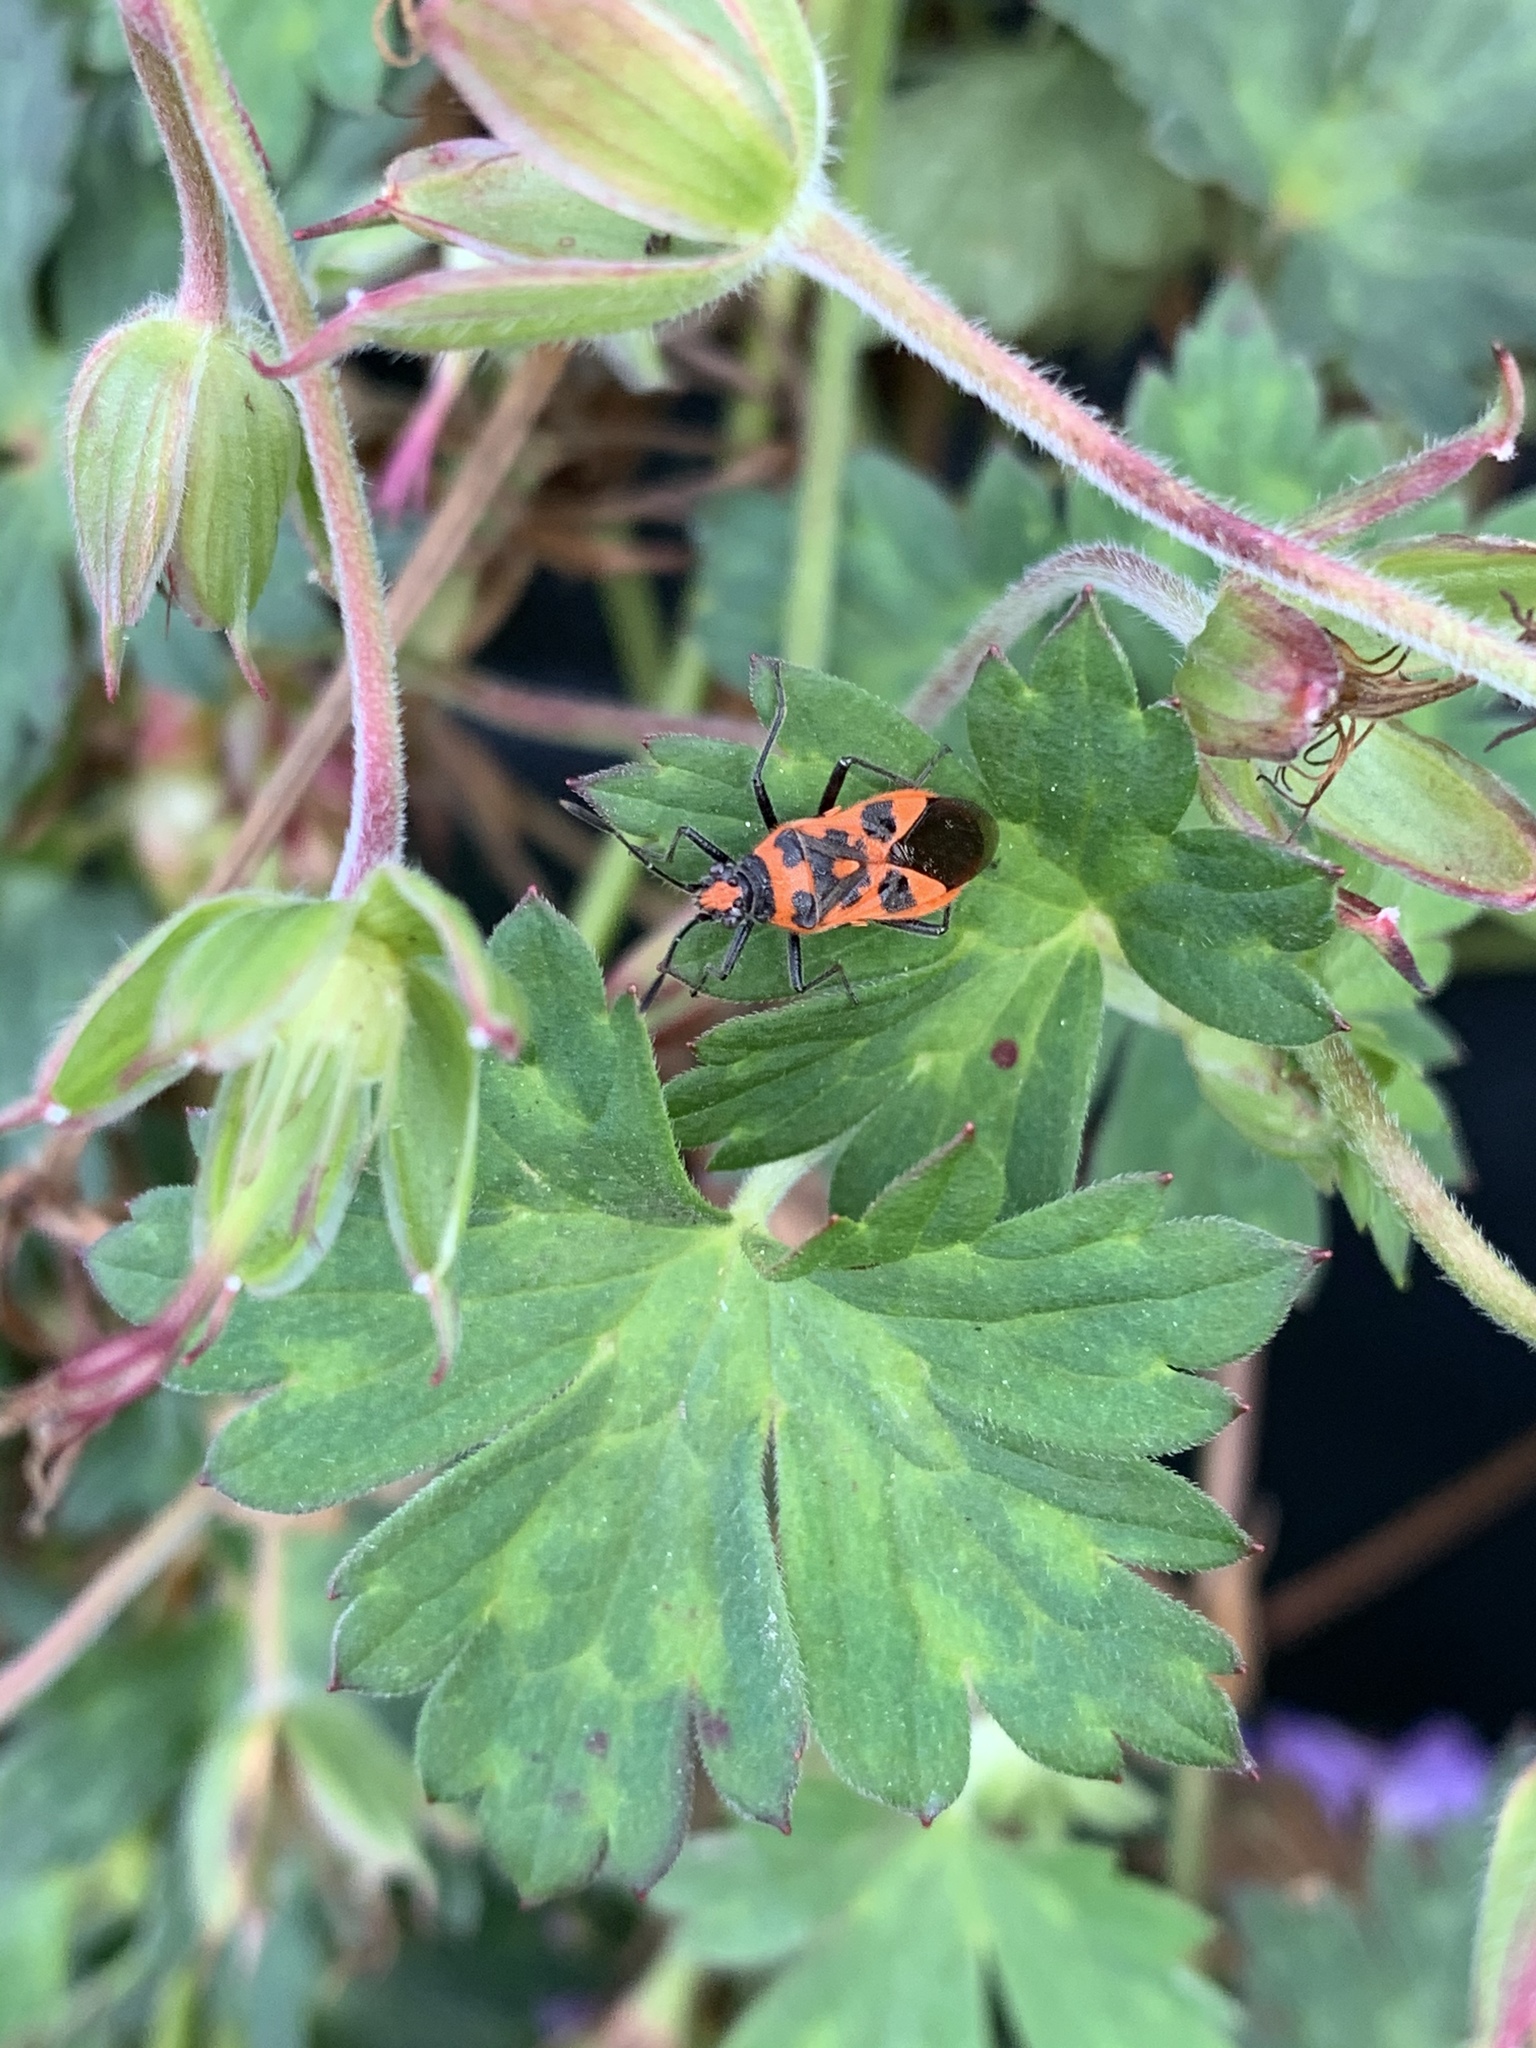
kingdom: Animalia
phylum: Arthropoda
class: Insecta
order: Hemiptera
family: Rhopalidae
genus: Corizus
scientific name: Corizus hyoscyami
